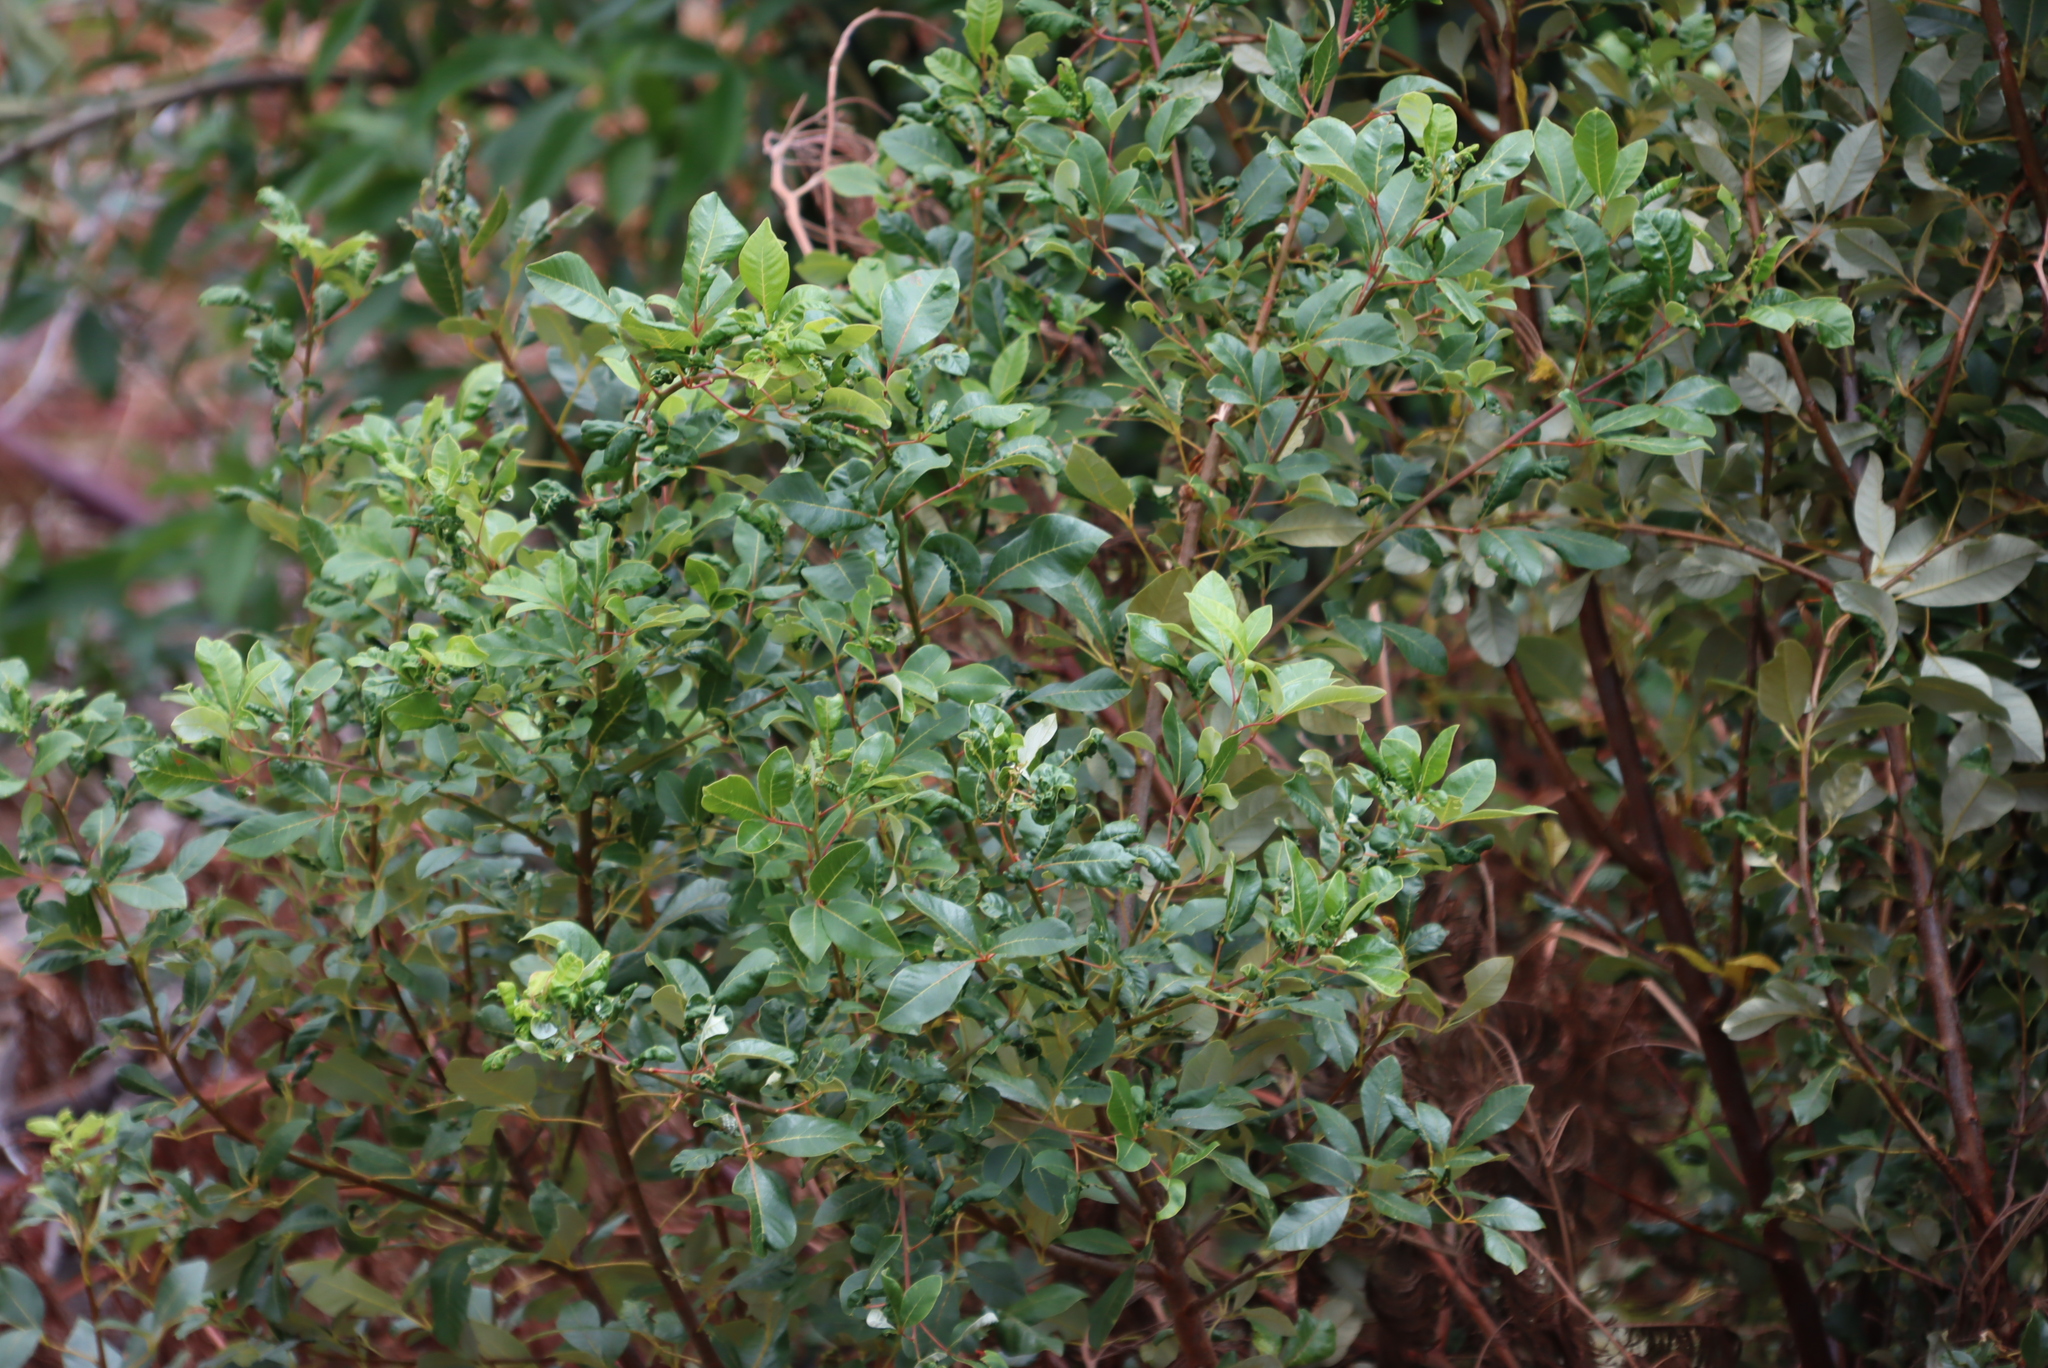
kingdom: Plantae
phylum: Tracheophyta
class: Magnoliopsida
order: Sapindales
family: Anacardiaceae
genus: Searsia
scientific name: Searsia tomentosa
